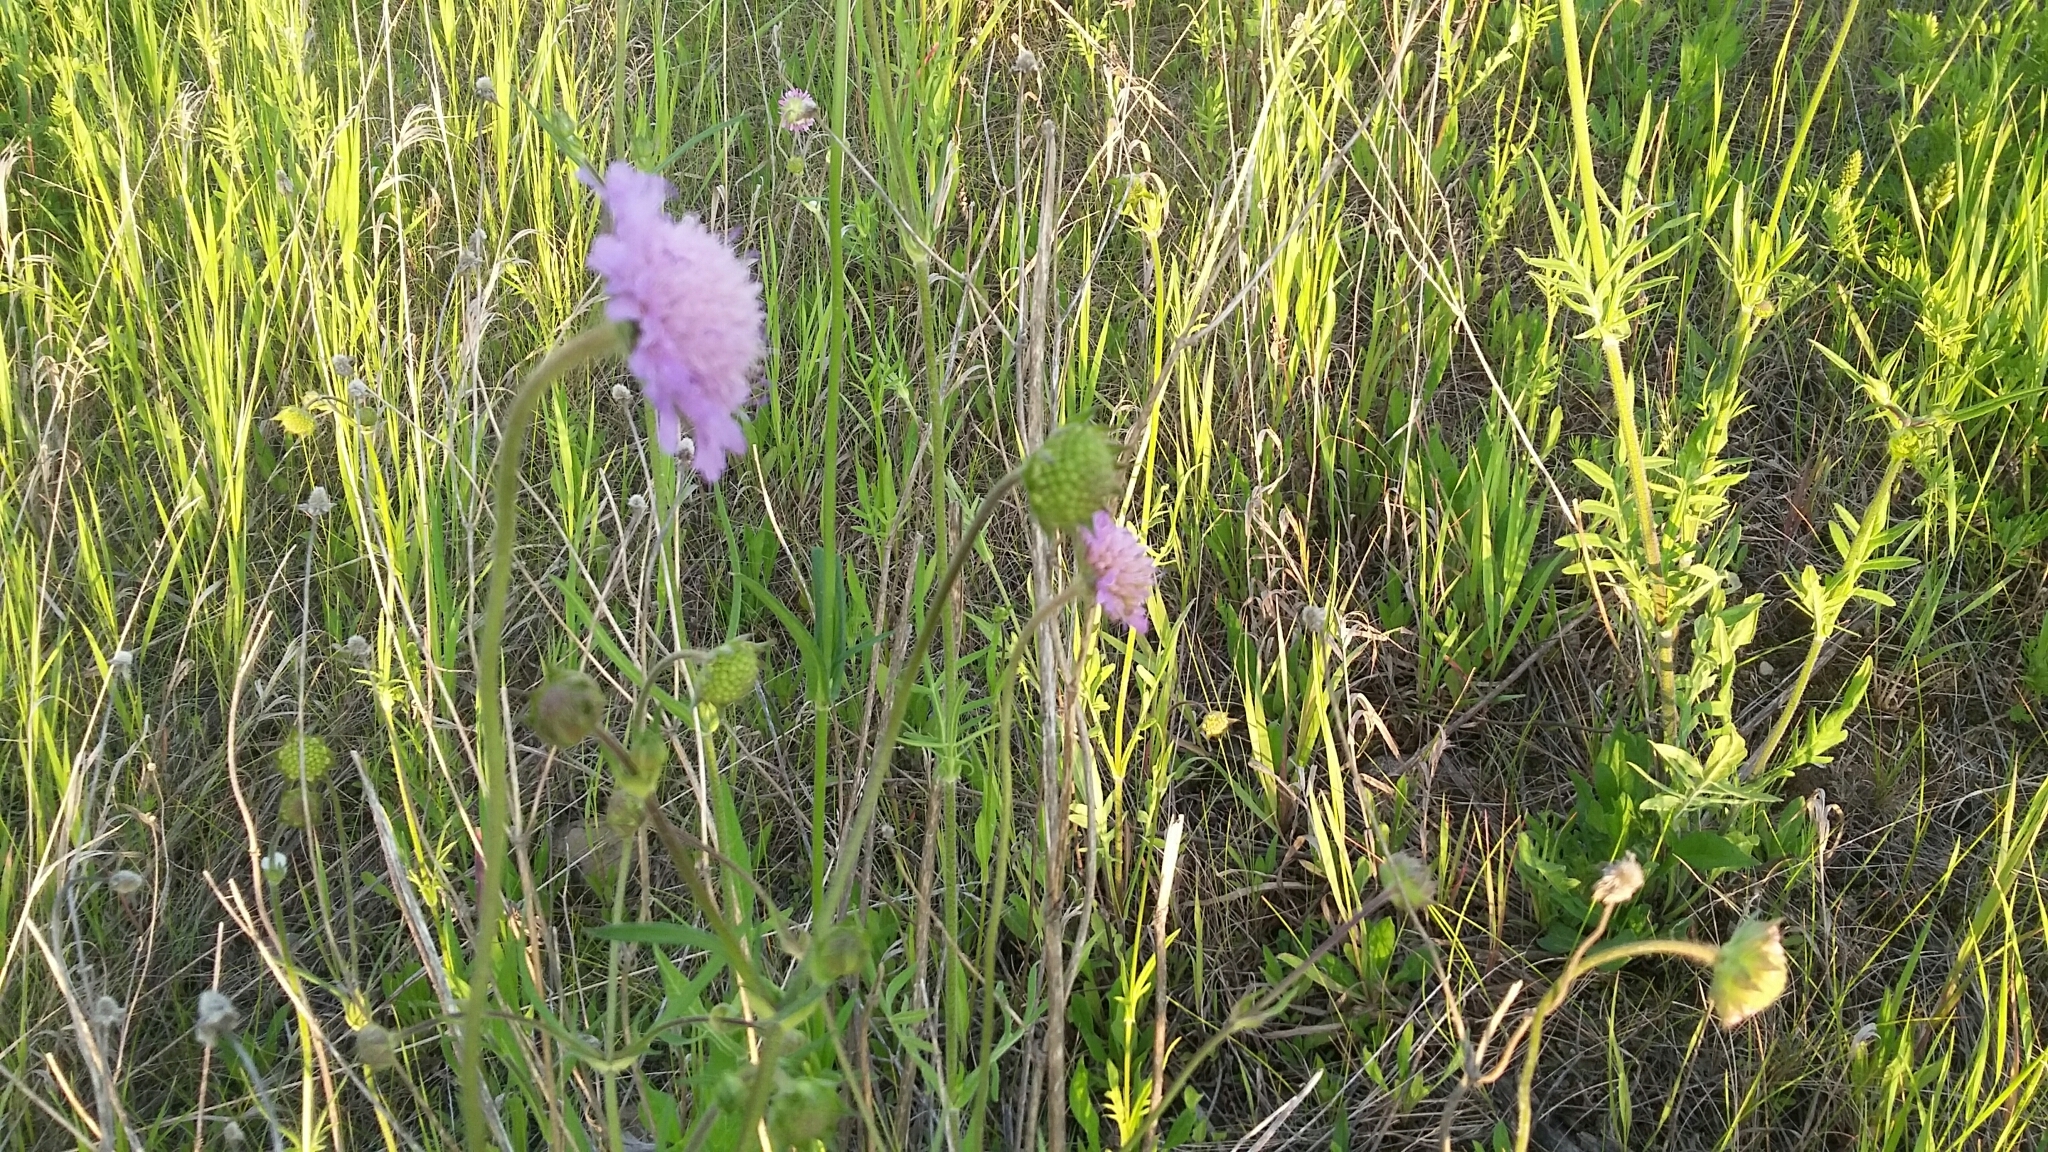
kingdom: Plantae
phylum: Tracheophyta
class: Magnoliopsida
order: Dipsacales
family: Caprifoliaceae
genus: Knautia
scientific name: Knautia arvensis
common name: Field scabiosa
